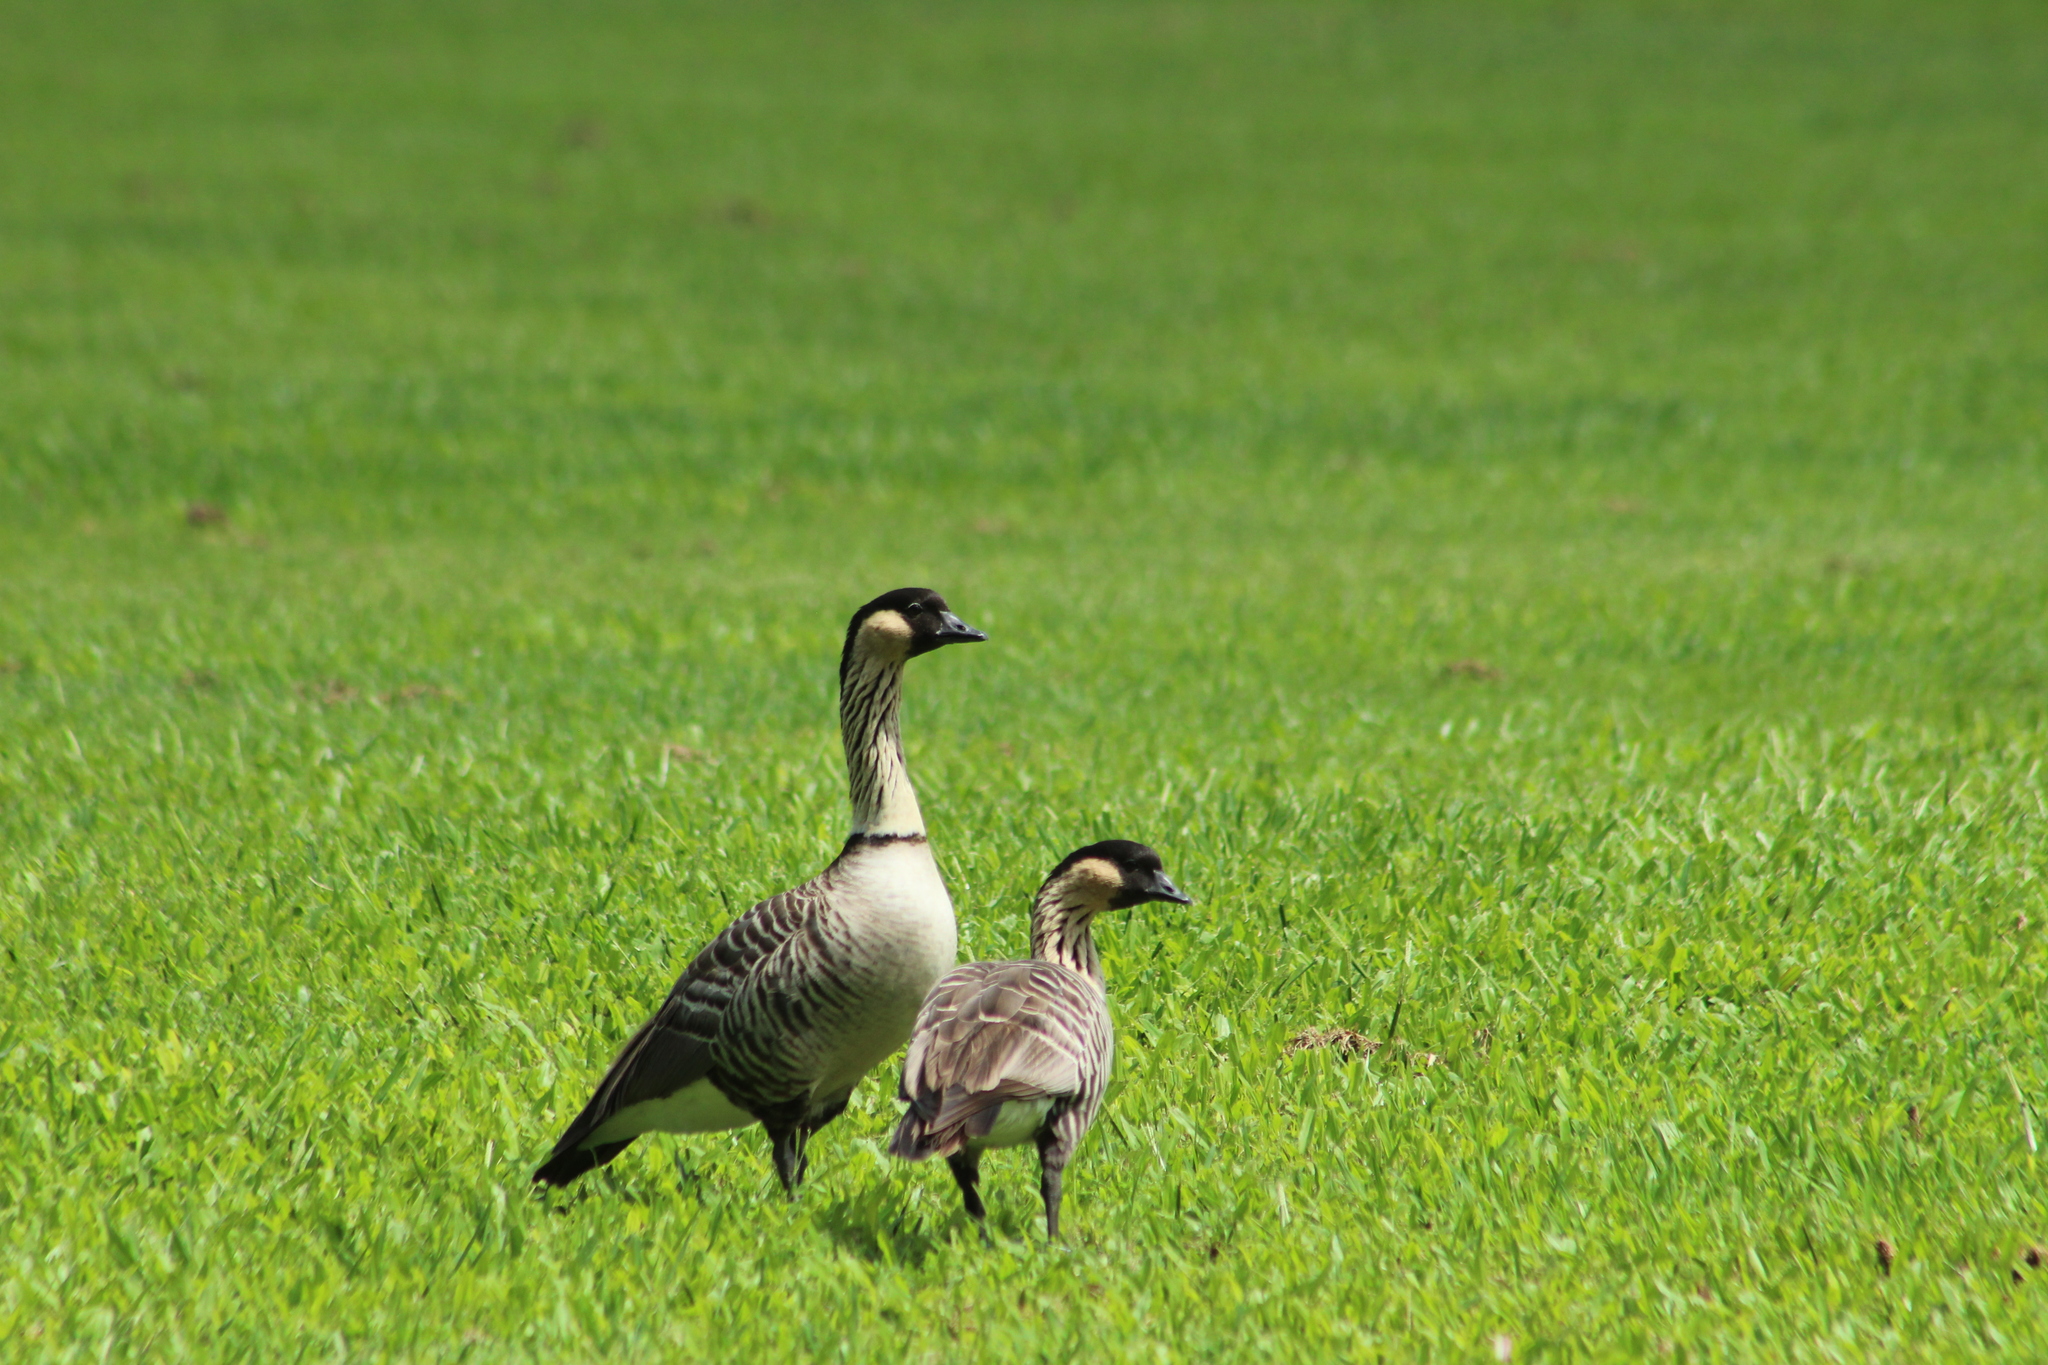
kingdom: Animalia
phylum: Chordata
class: Aves
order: Anseriformes
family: Anatidae
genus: Branta
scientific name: Branta sandvicensis
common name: Nene
